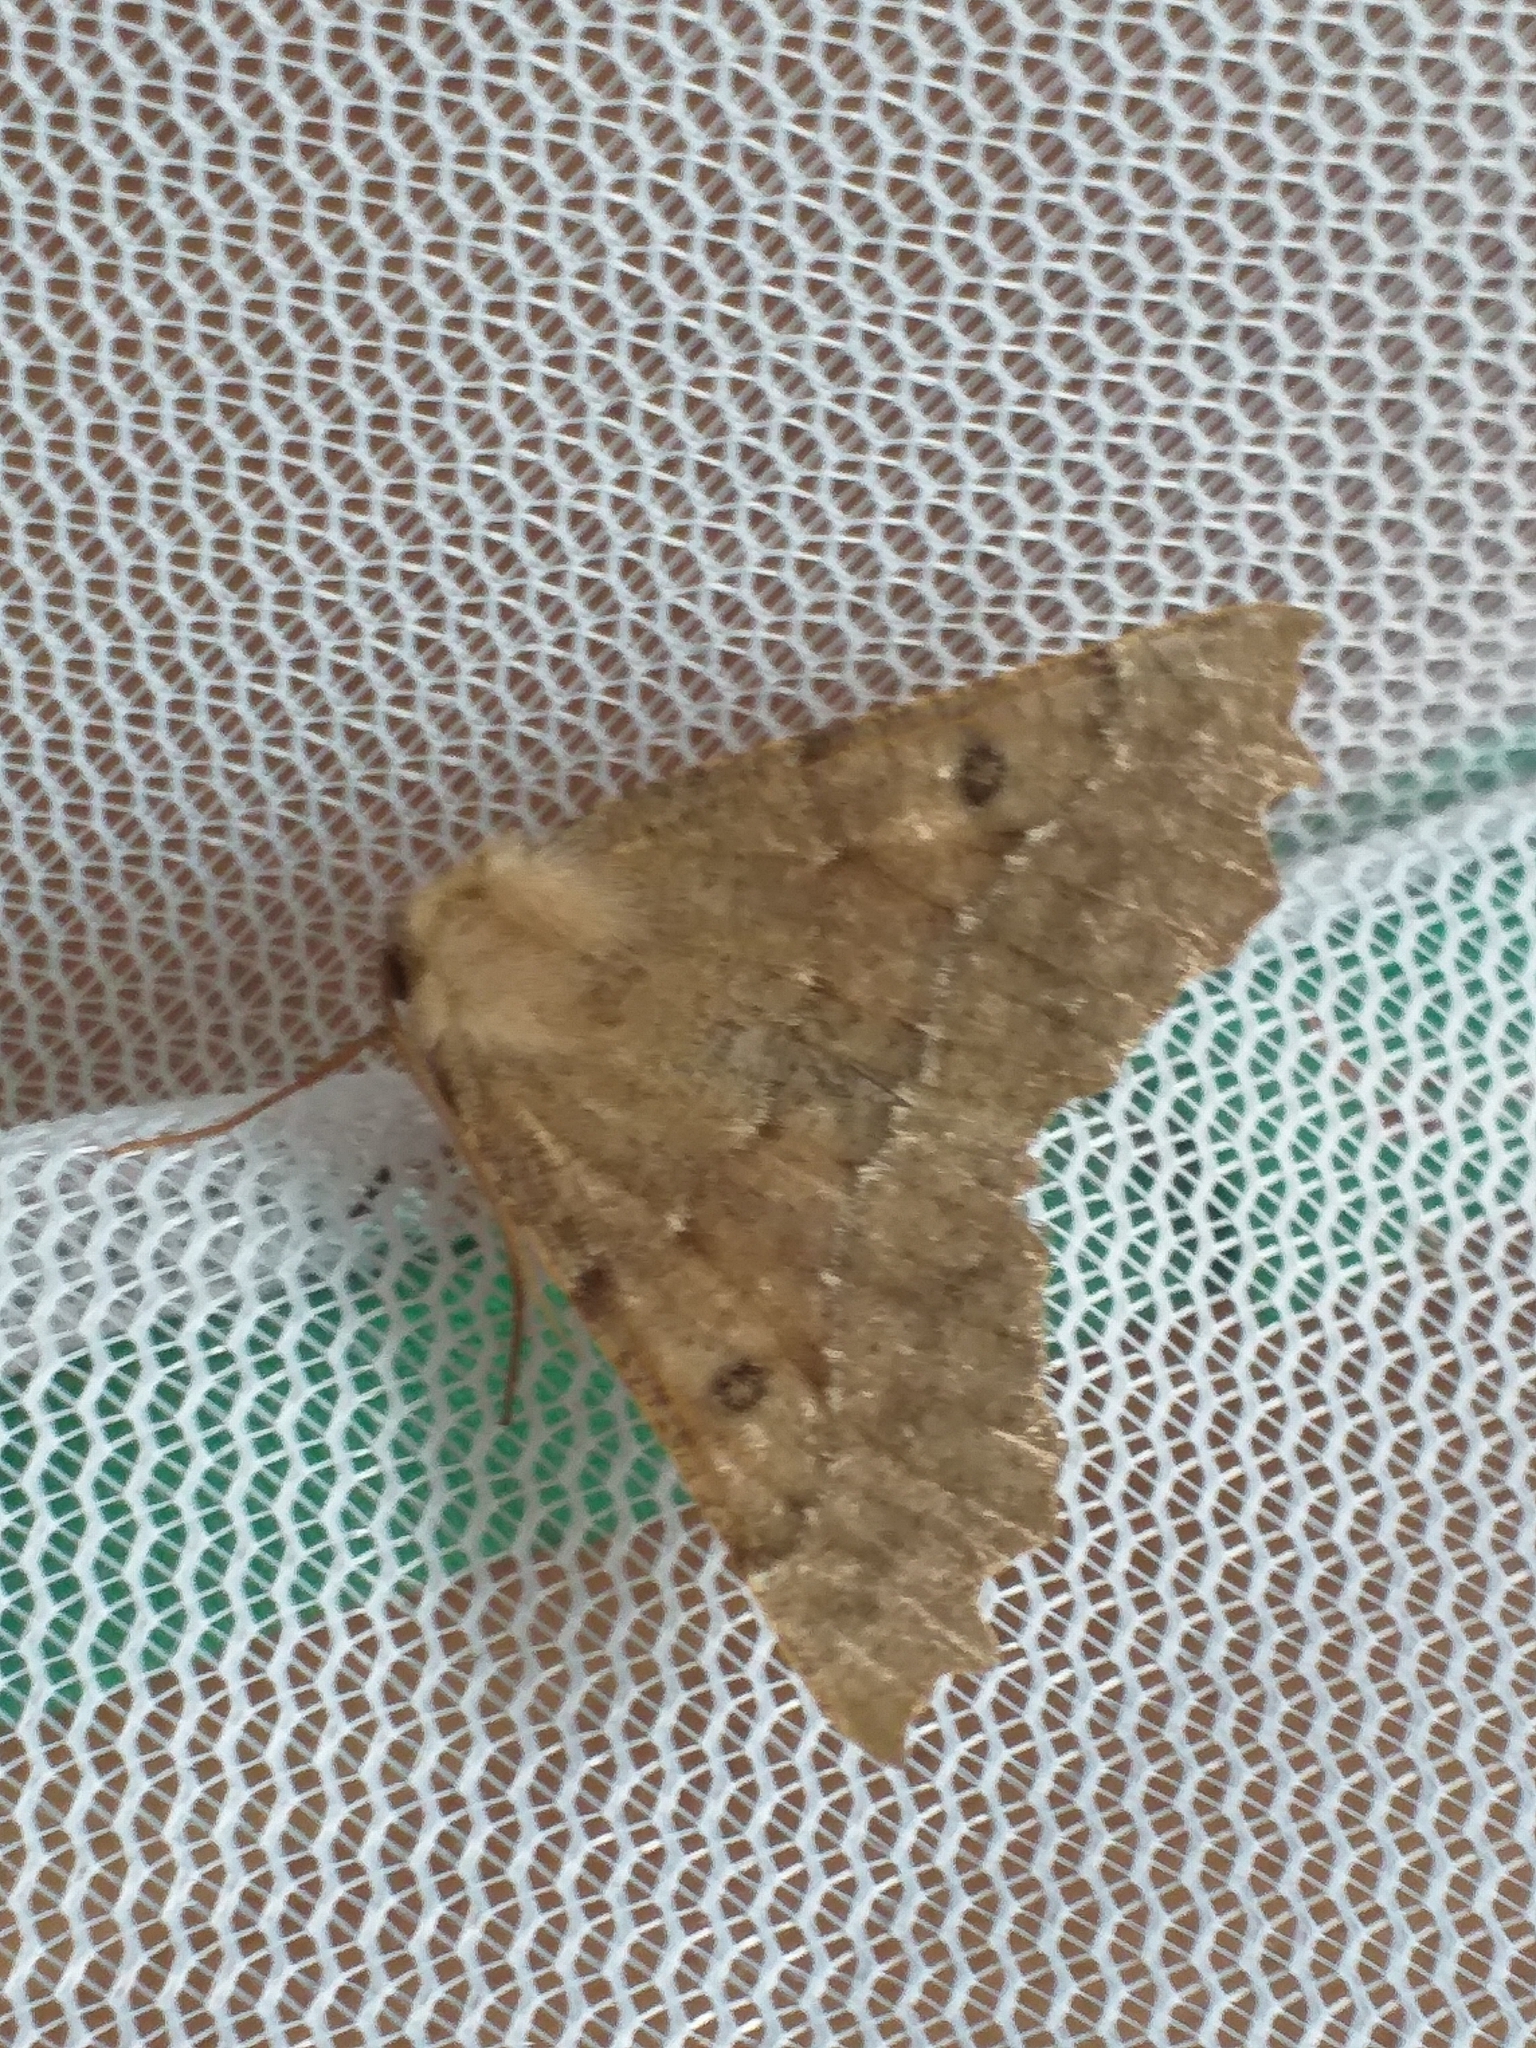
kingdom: Animalia
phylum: Arthropoda
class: Insecta
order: Lepidoptera
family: Geometridae
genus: Odontopera
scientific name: Odontopera bidentata
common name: Scalloped hazel
